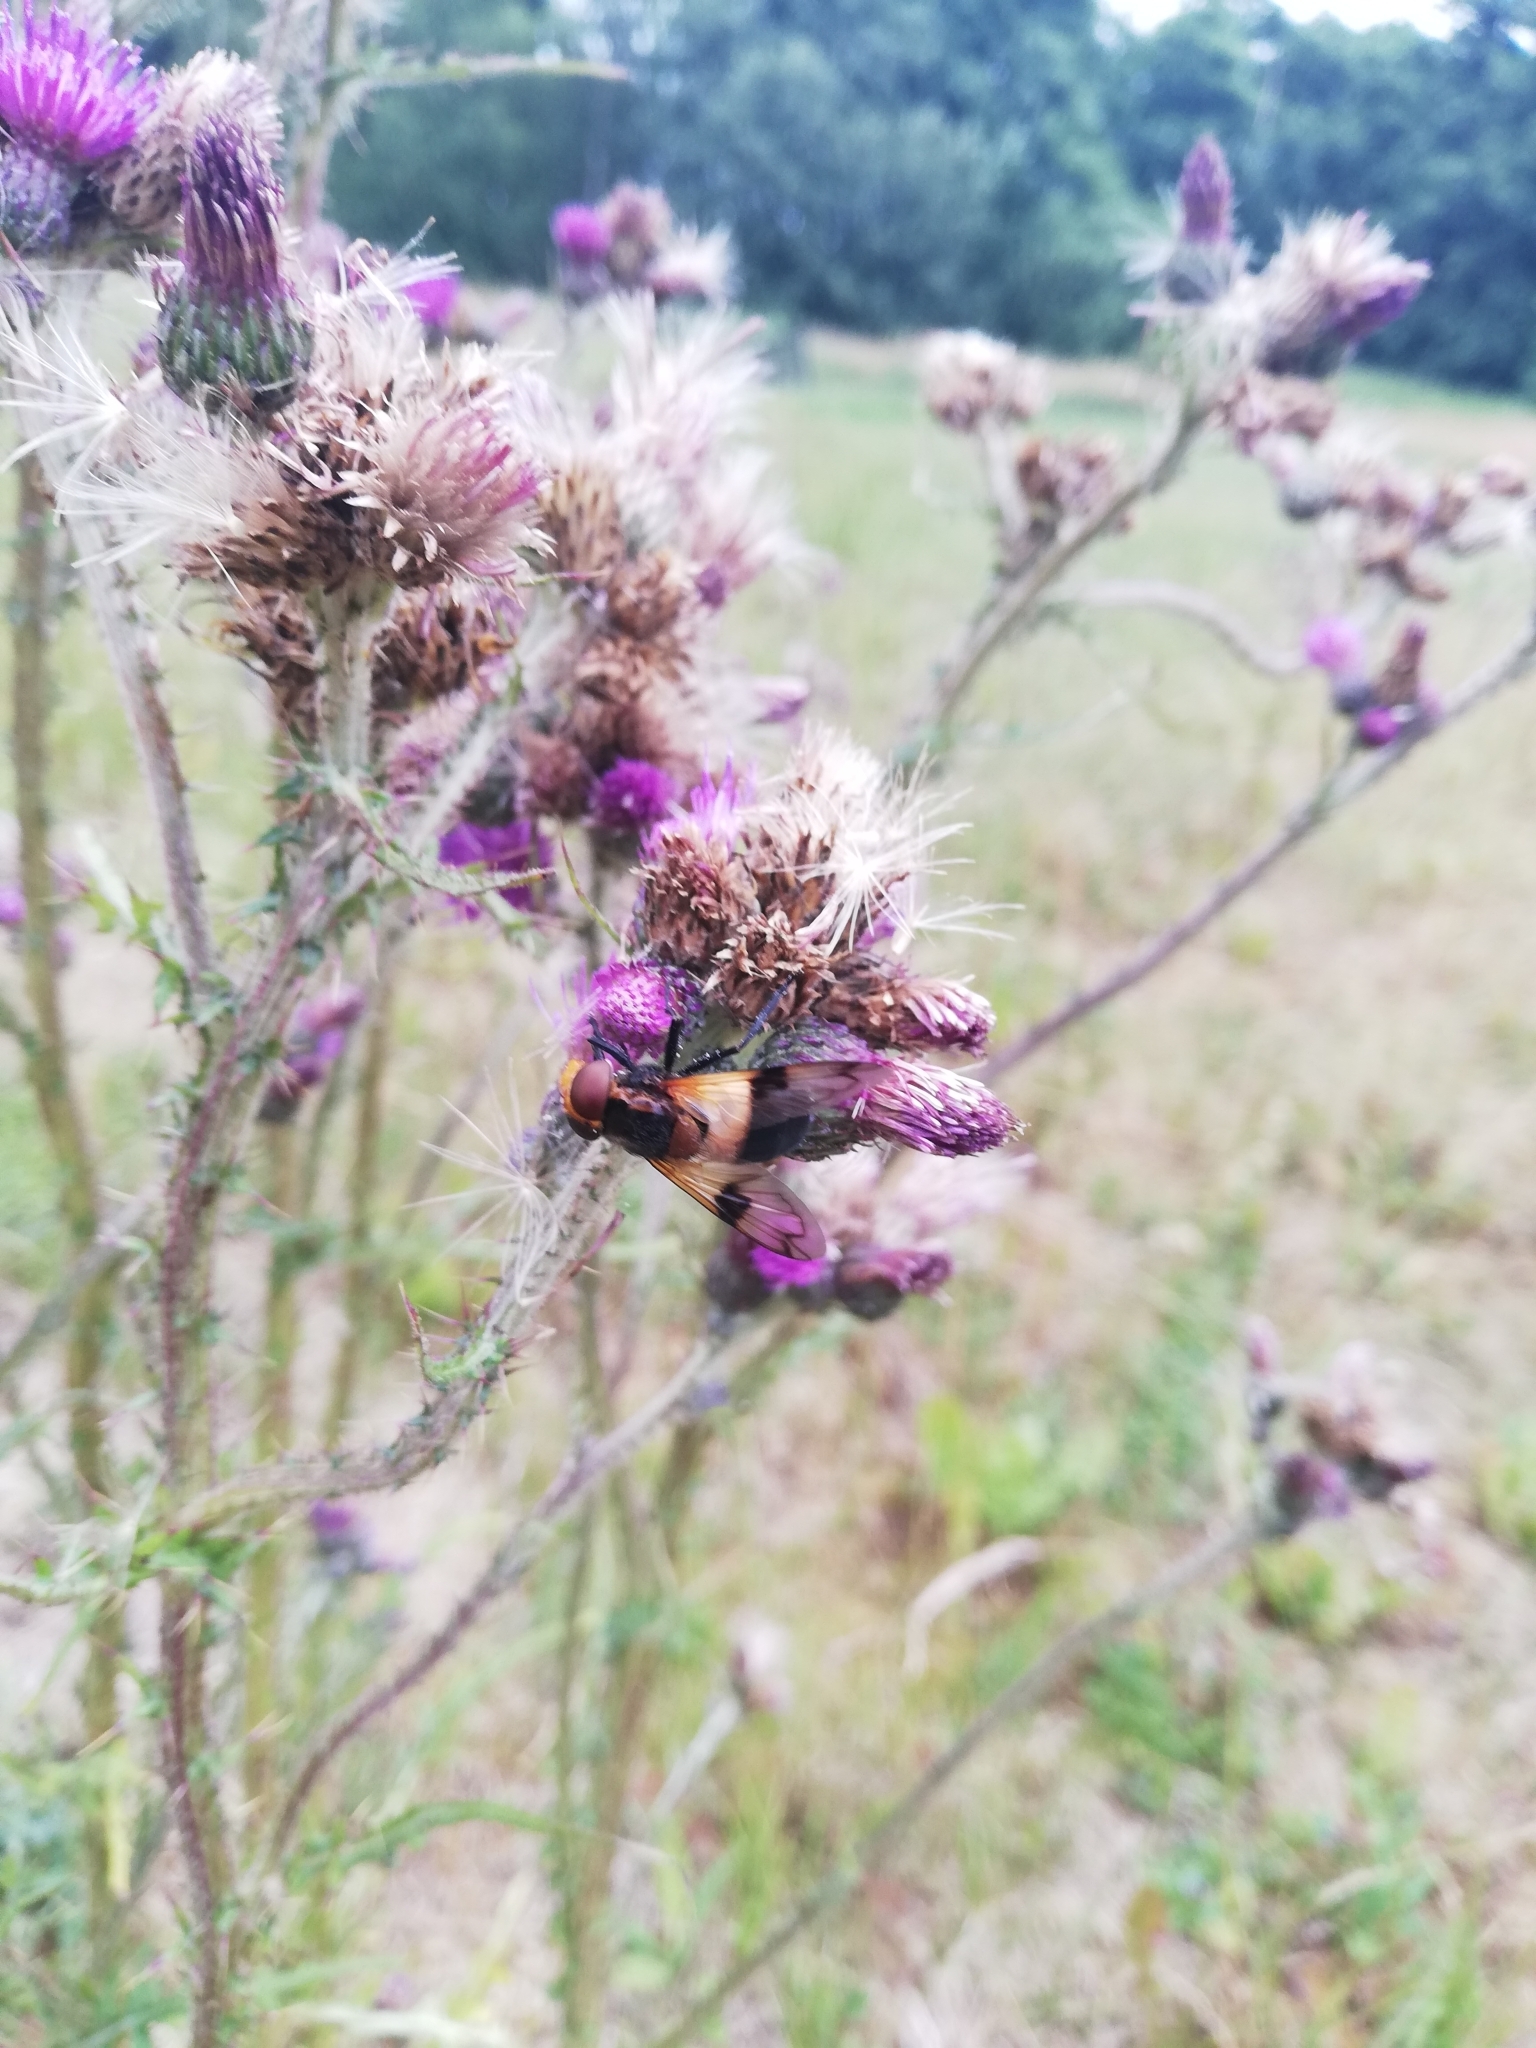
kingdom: Animalia
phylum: Arthropoda
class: Insecta
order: Diptera
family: Syrphidae
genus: Volucella
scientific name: Volucella pellucens
